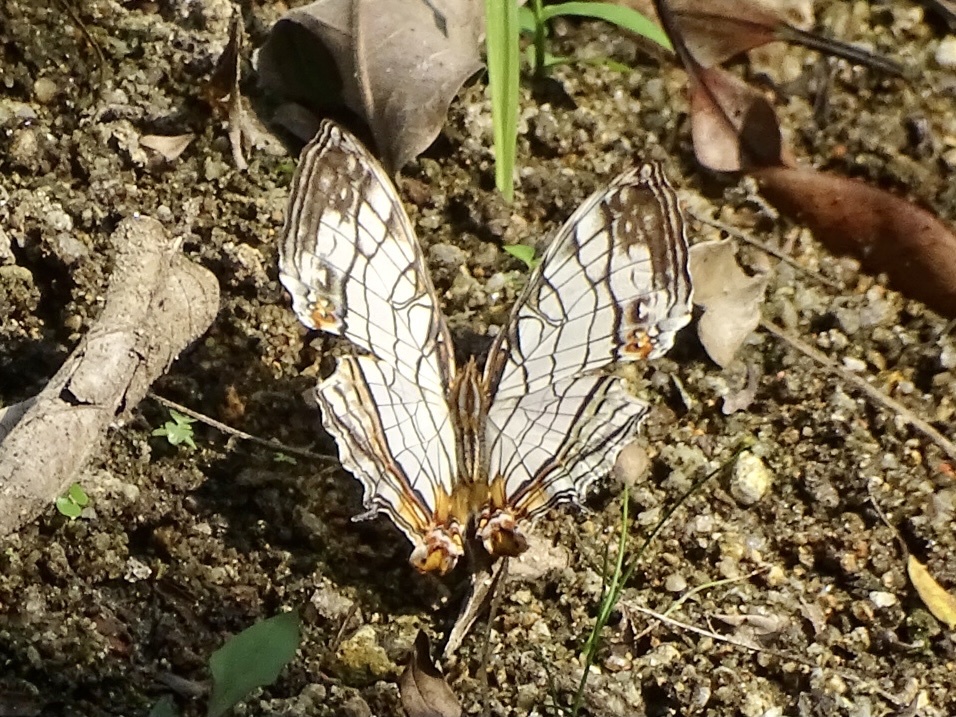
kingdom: Animalia
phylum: Arthropoda
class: Insecta
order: Lepidoptera
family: Nymphalidae
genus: Cyrestis
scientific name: Cyrestis thyodamas
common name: Common mapwing
